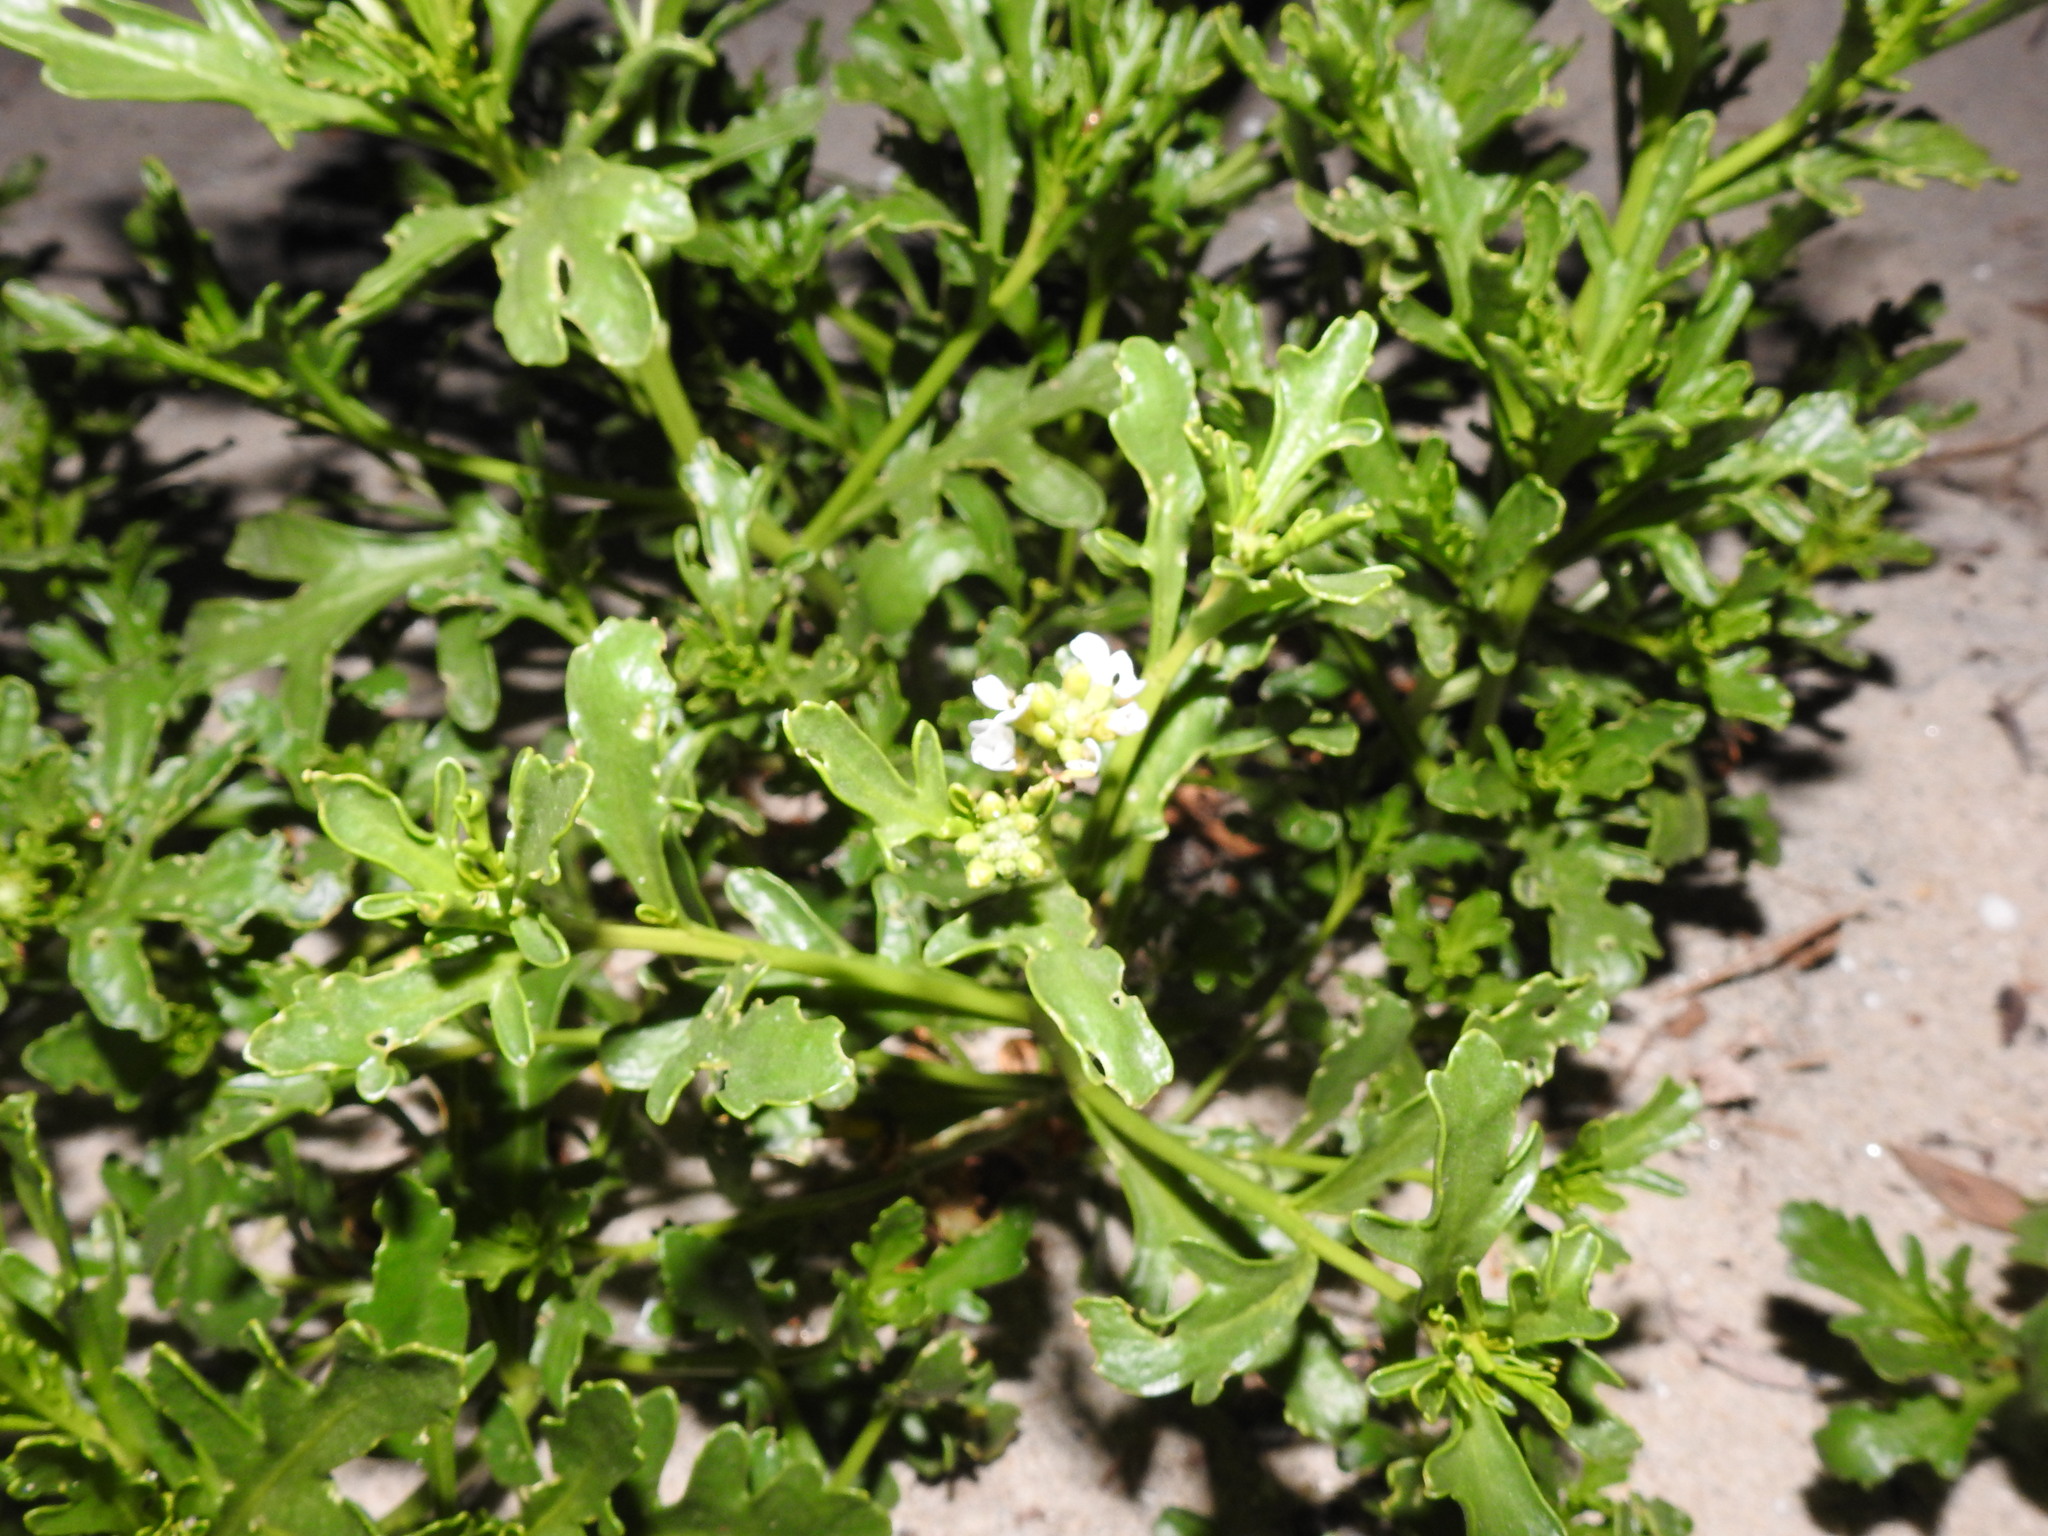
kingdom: Plantae
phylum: Tracheophyta
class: Magnoliopsida
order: Brassicales
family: Brassicaceae
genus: Cakile
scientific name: Cakile maritima
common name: Sea rocket
